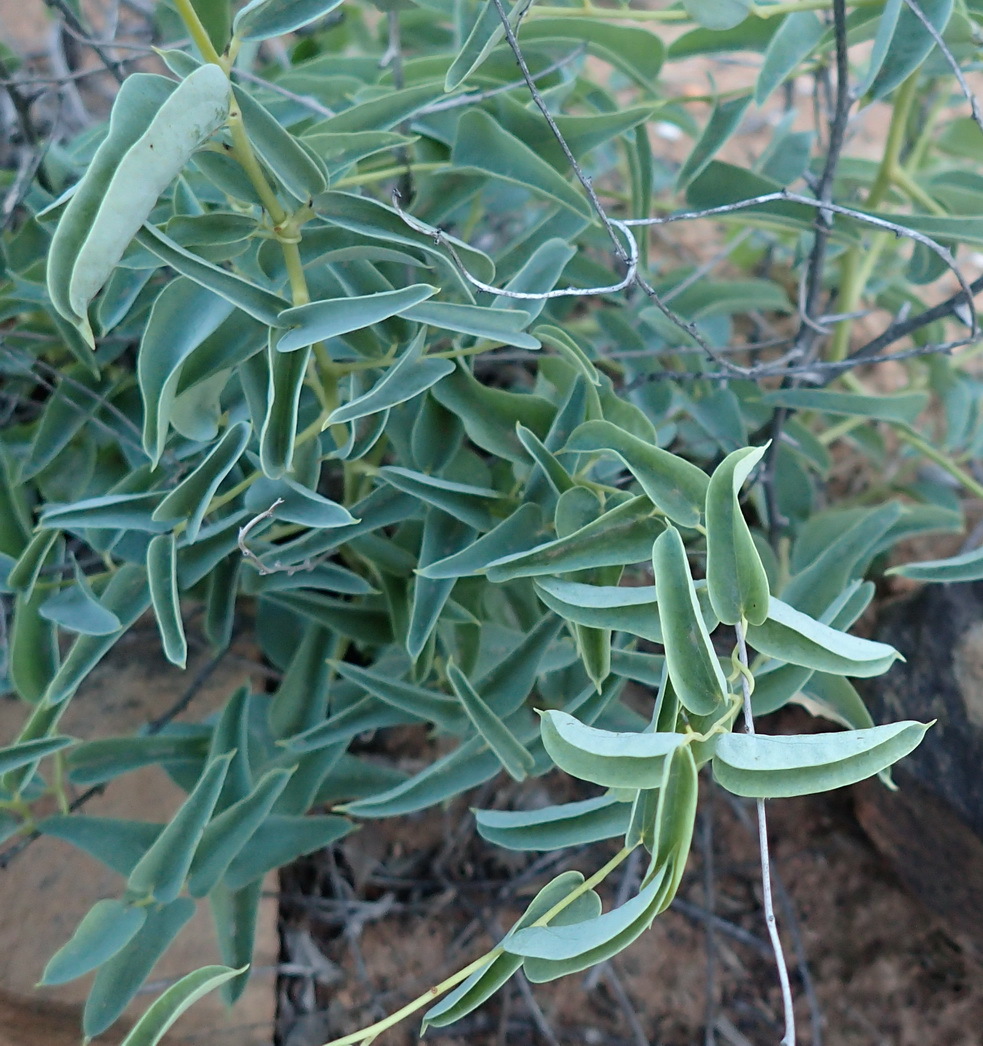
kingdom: Plantae
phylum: Tracheophyta
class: Liliopsida
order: Dioscoreales
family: Dioscoreaceae
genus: Dioscorea
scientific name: Dioscorea hemicrypta
